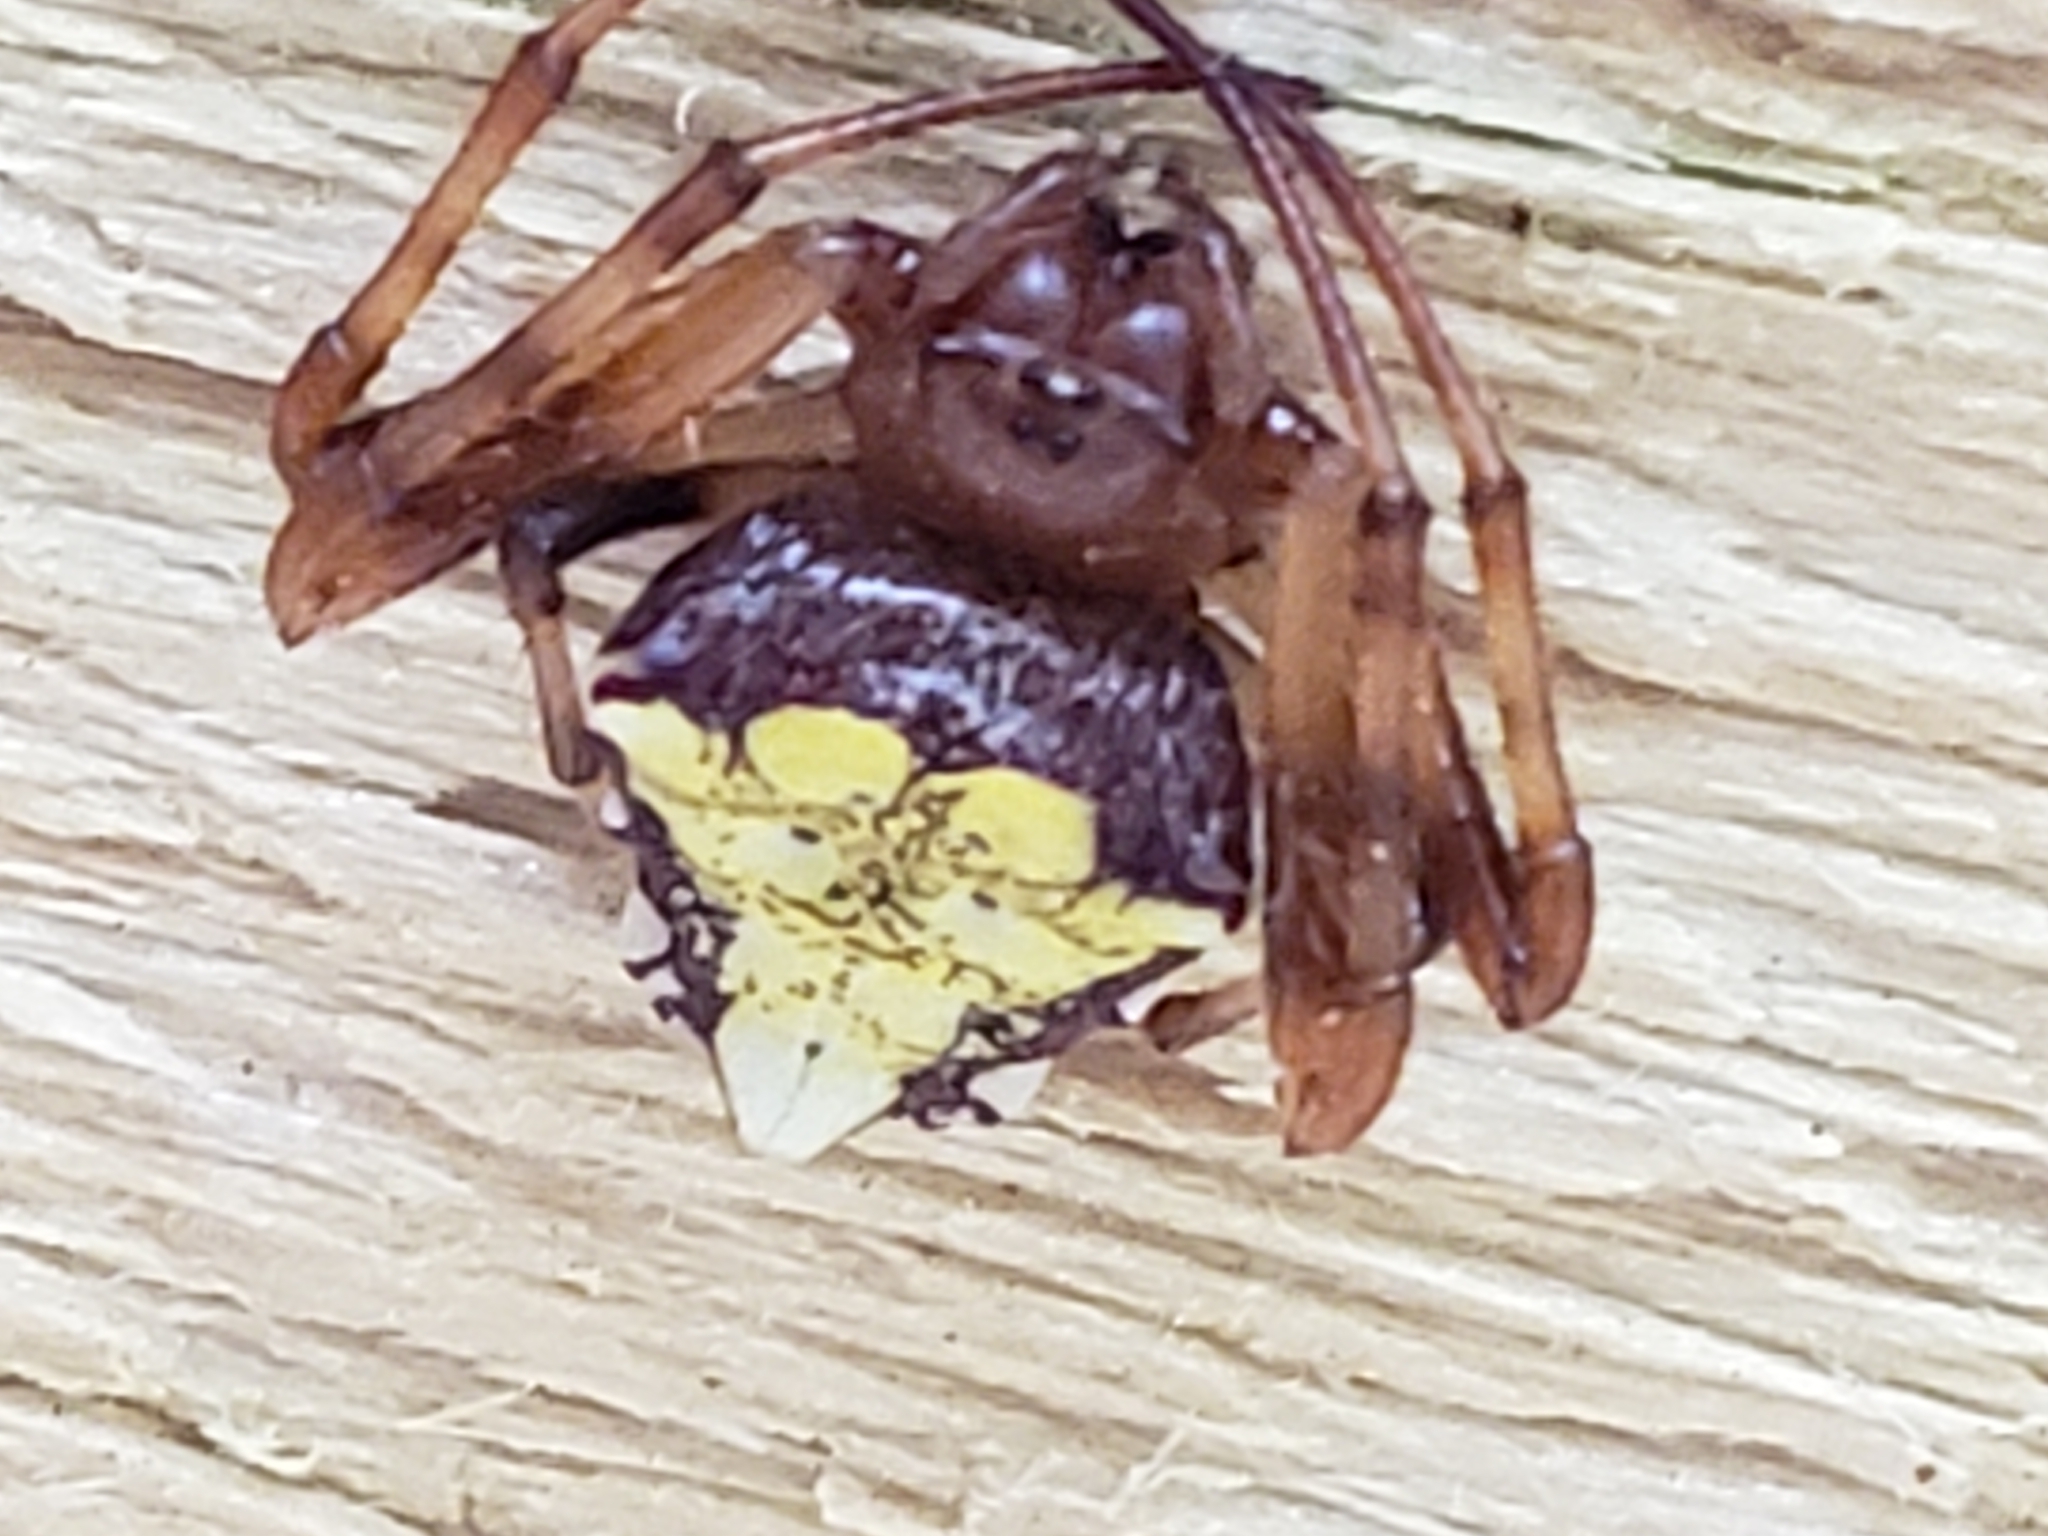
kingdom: Animalia
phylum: Arthropoda
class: Arachnida
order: Araneae
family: Araneidae
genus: Verrucosa
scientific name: Verrucosa arenata
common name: Orb weavers
